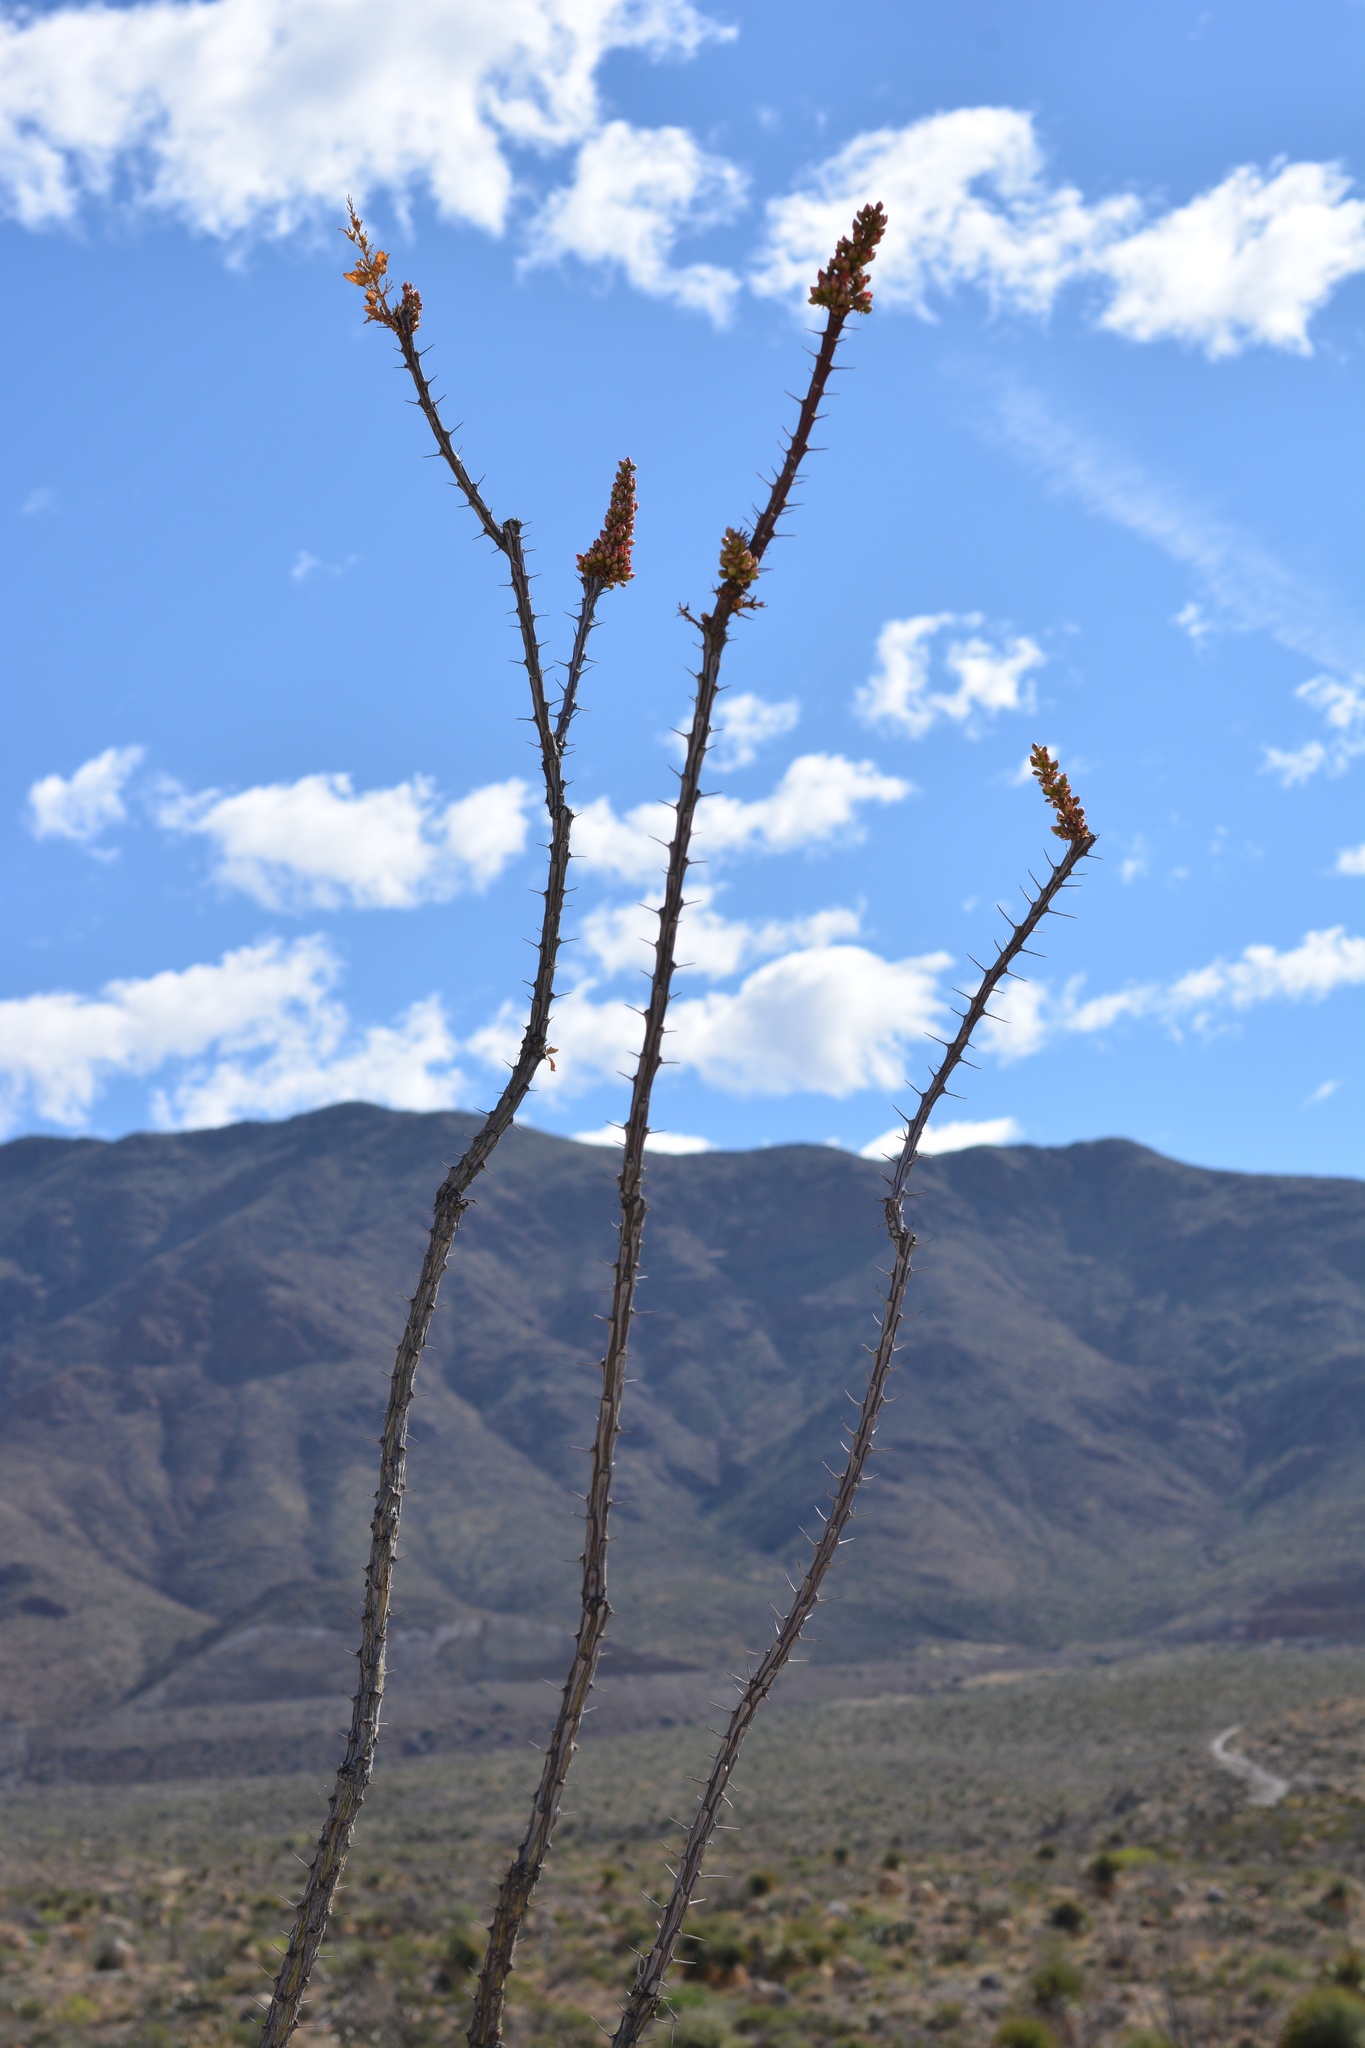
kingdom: Plantae
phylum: Tracheophyta
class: Magnoliopsida
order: Ericales
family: Fouquieriaceae
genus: Fouquieria
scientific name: Fouquieria splendens
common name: Vine-cactus
